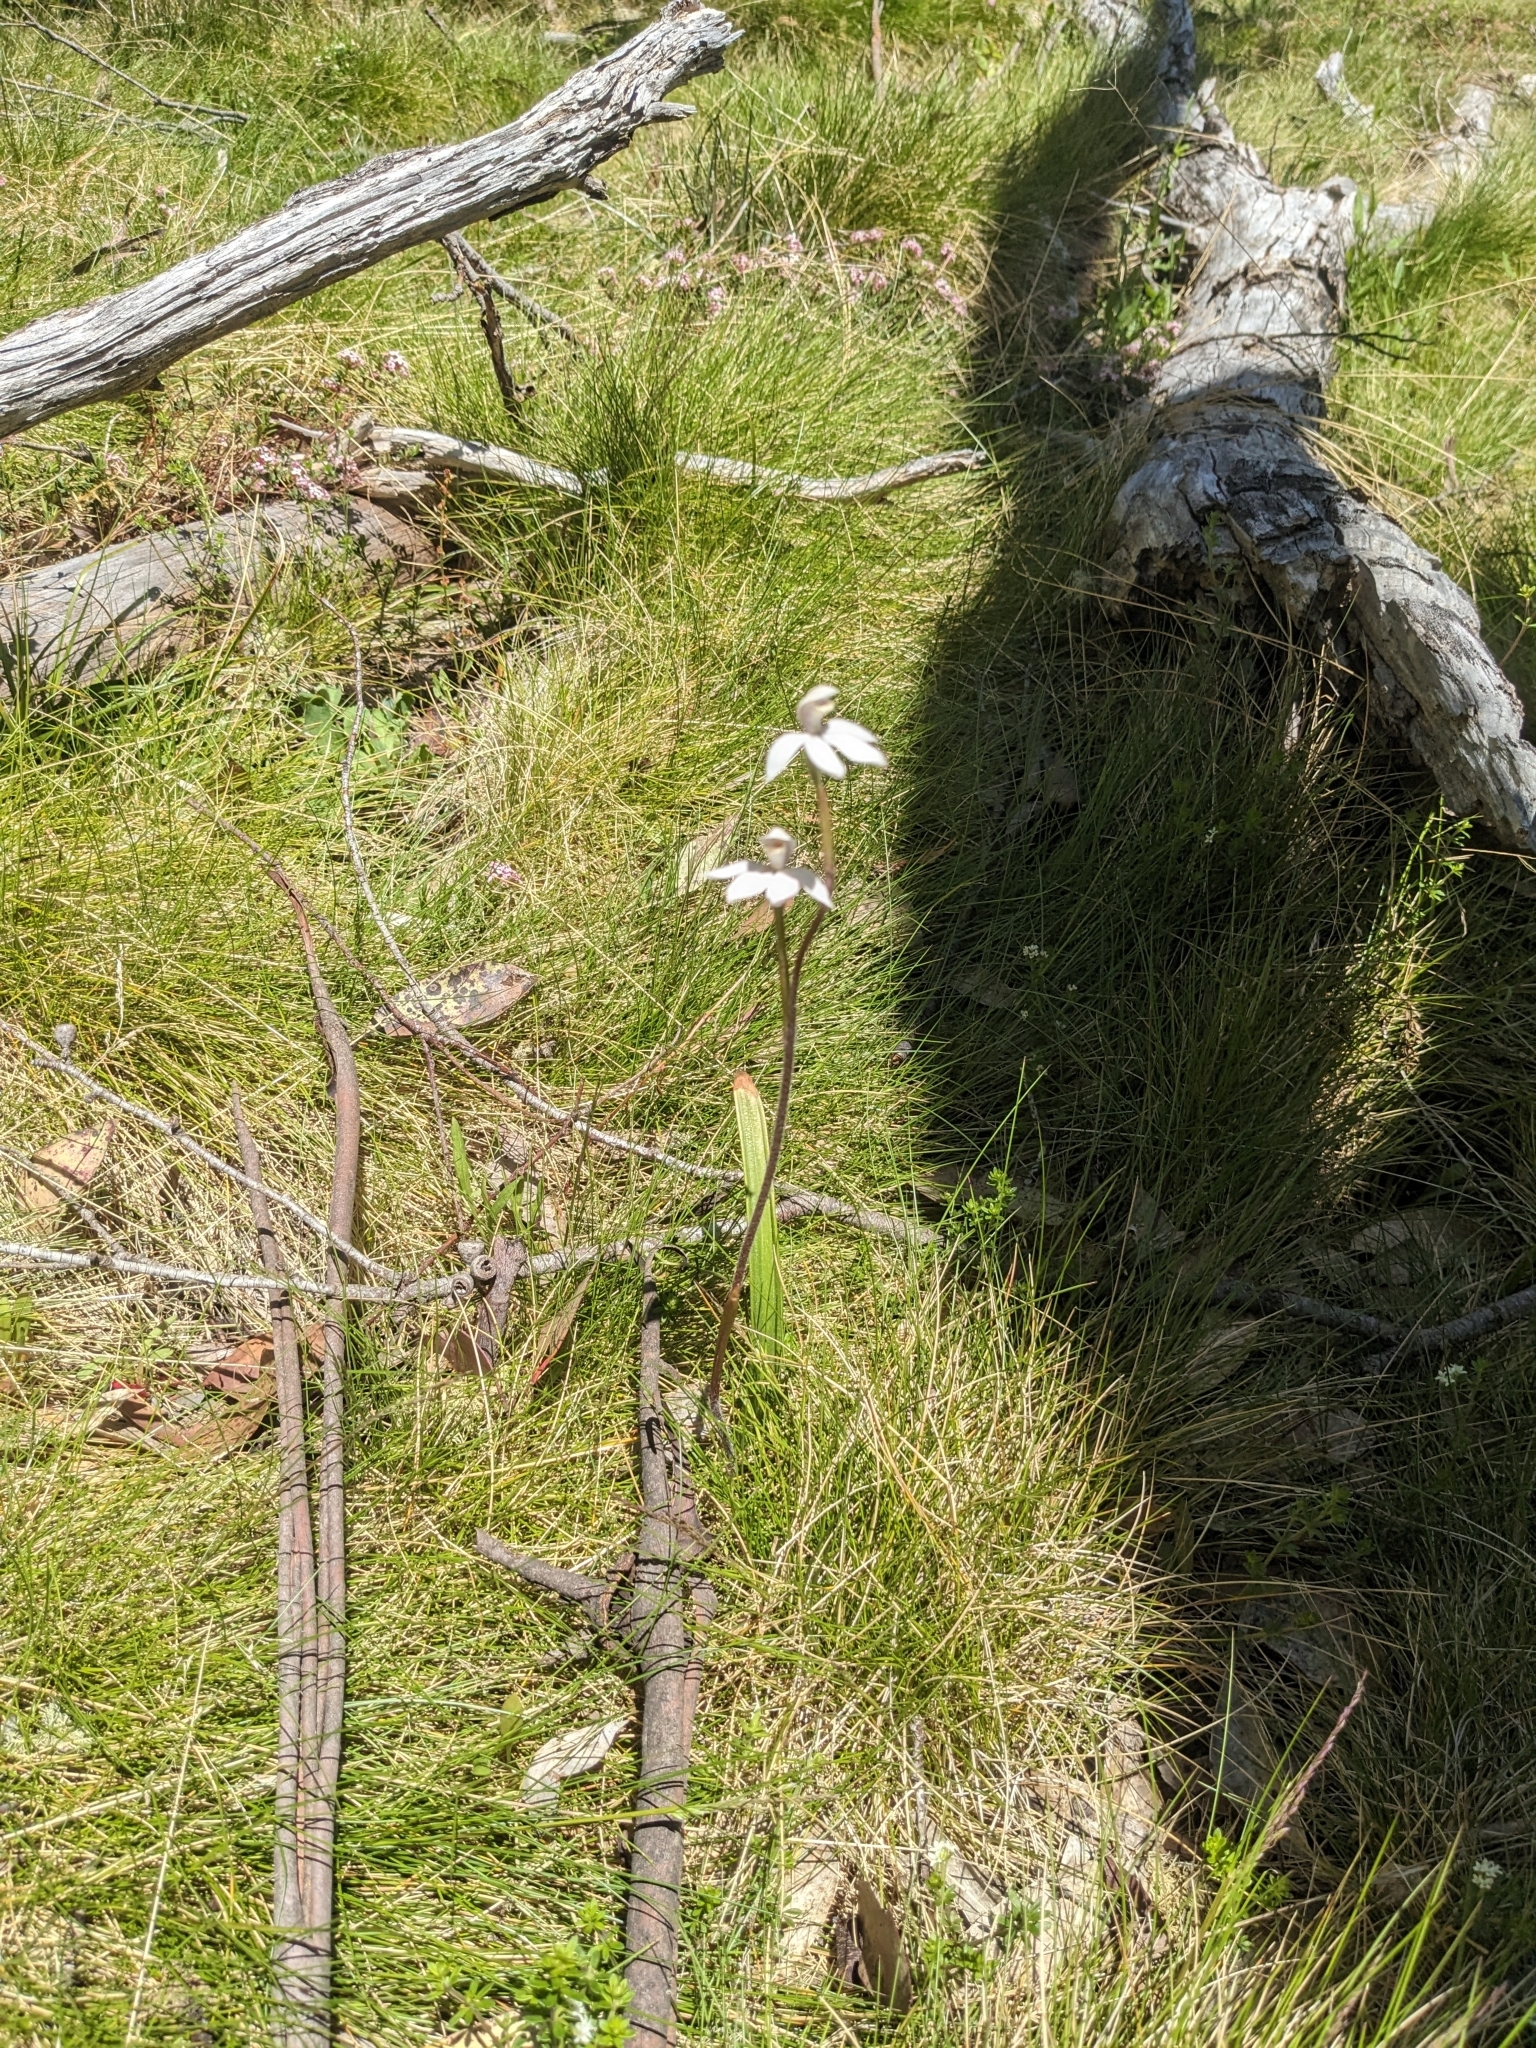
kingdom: Plantae
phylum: Tracheophyta
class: Liliopsida
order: Asparagales
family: Orchidaceae
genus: Caladenia
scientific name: Caladenia alpina
